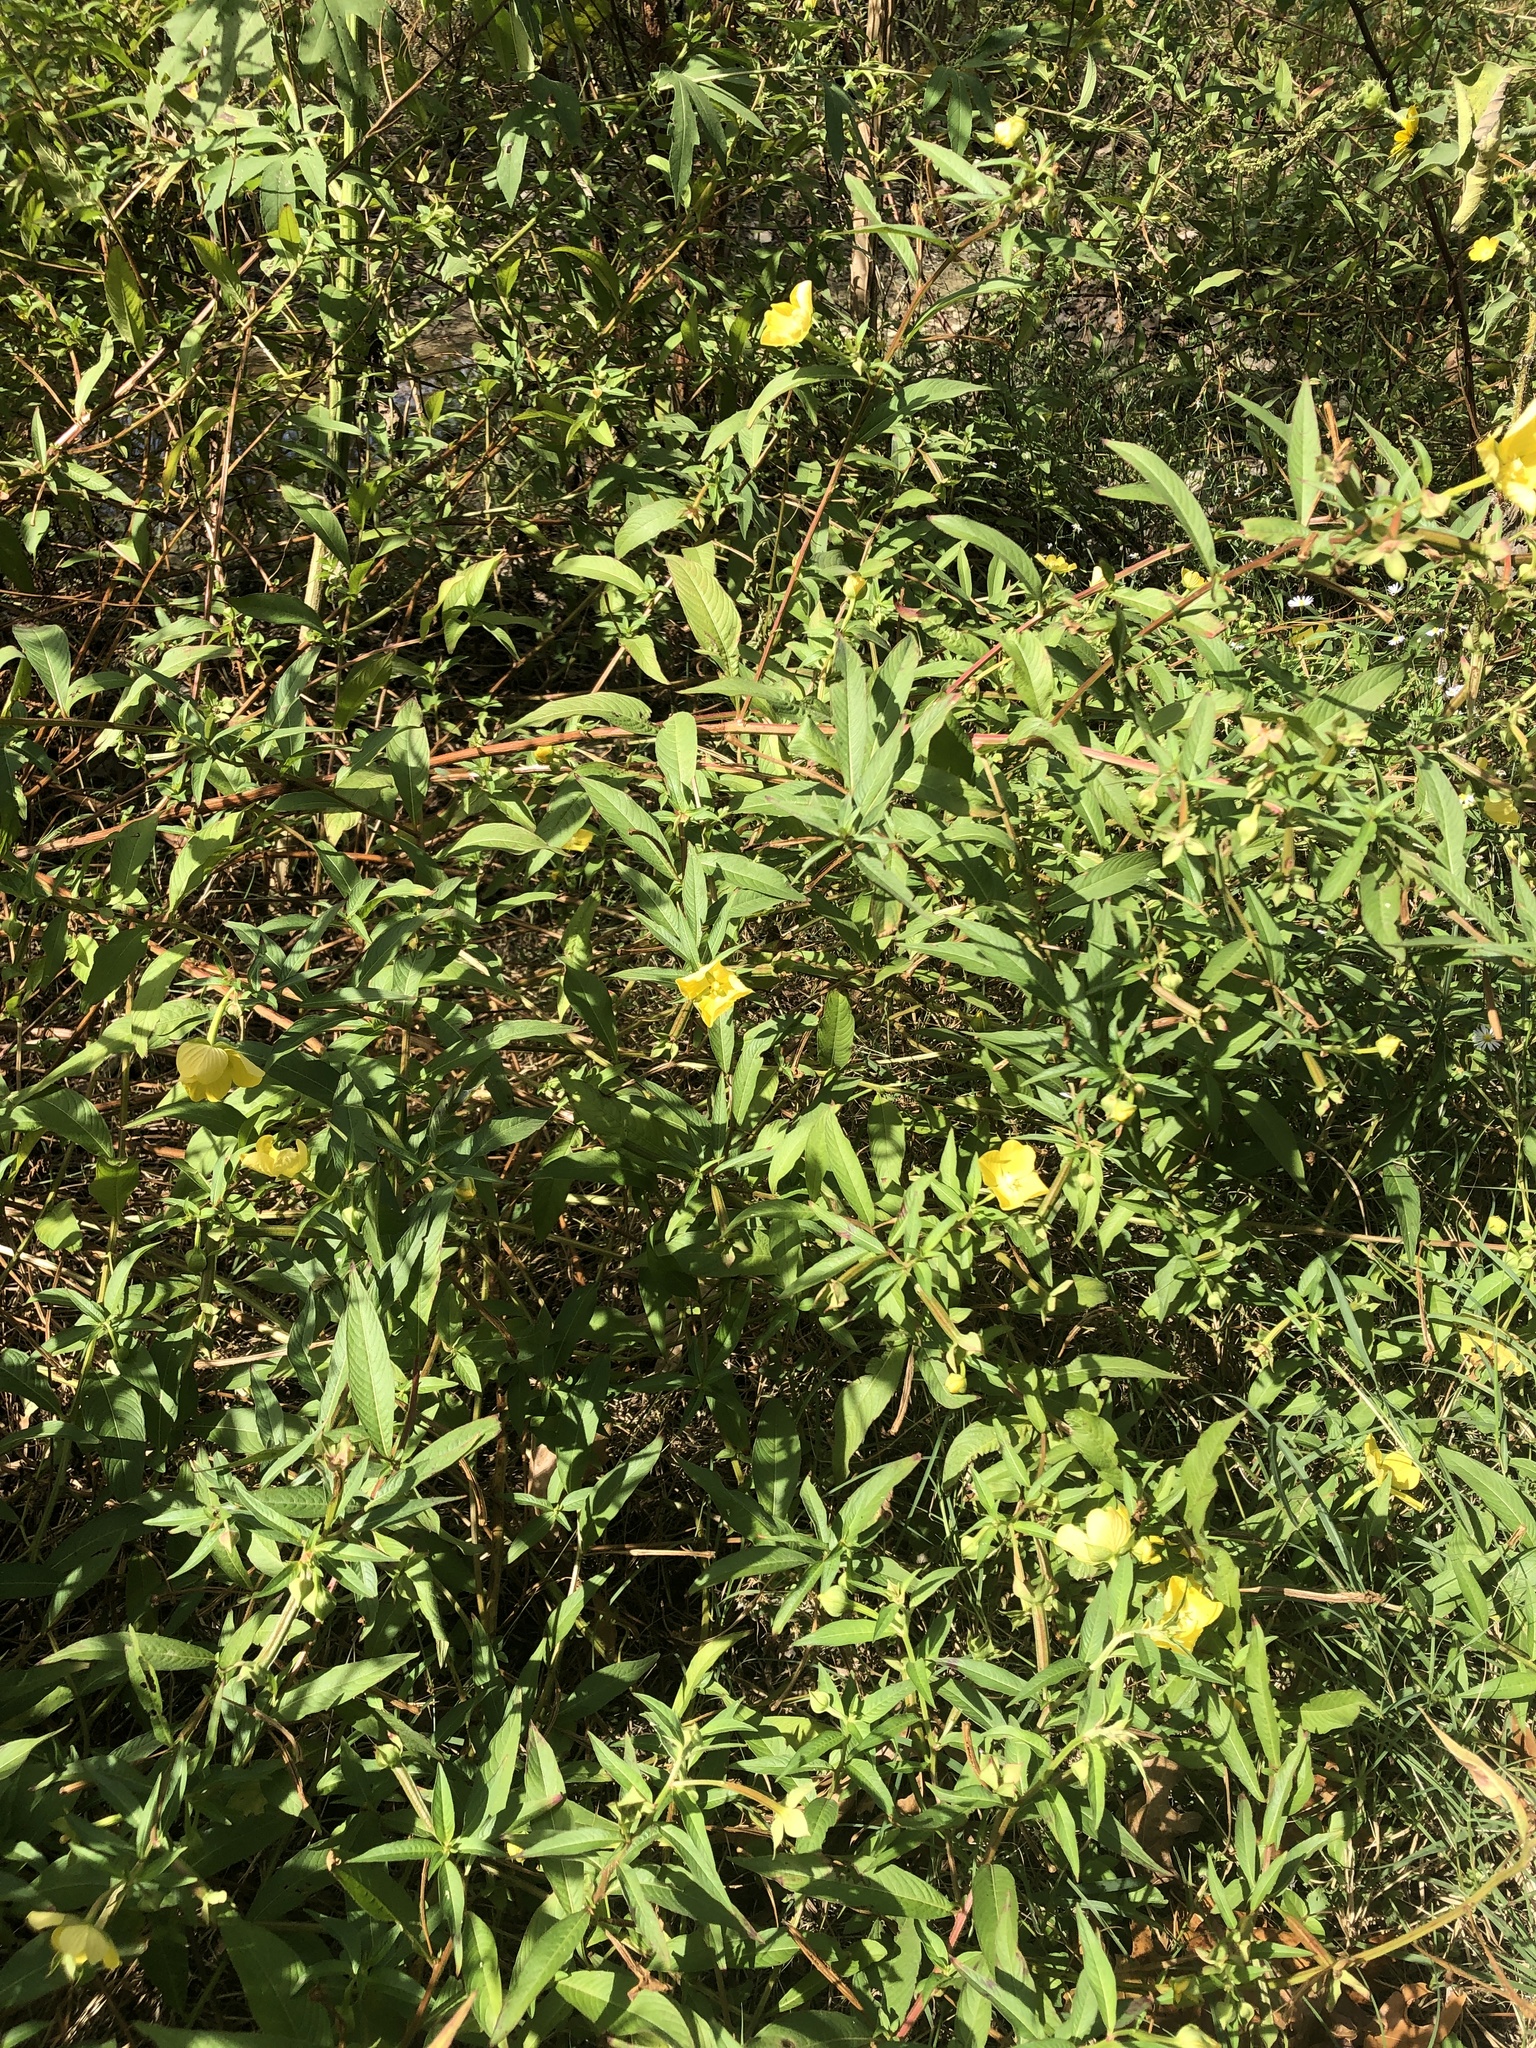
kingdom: Plantae
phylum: Tracheophyta
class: Magnoliopsida
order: Myrtales
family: Onagraceae
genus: Ludwigia
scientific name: Ludwigia octovalvis
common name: Water-primrose
